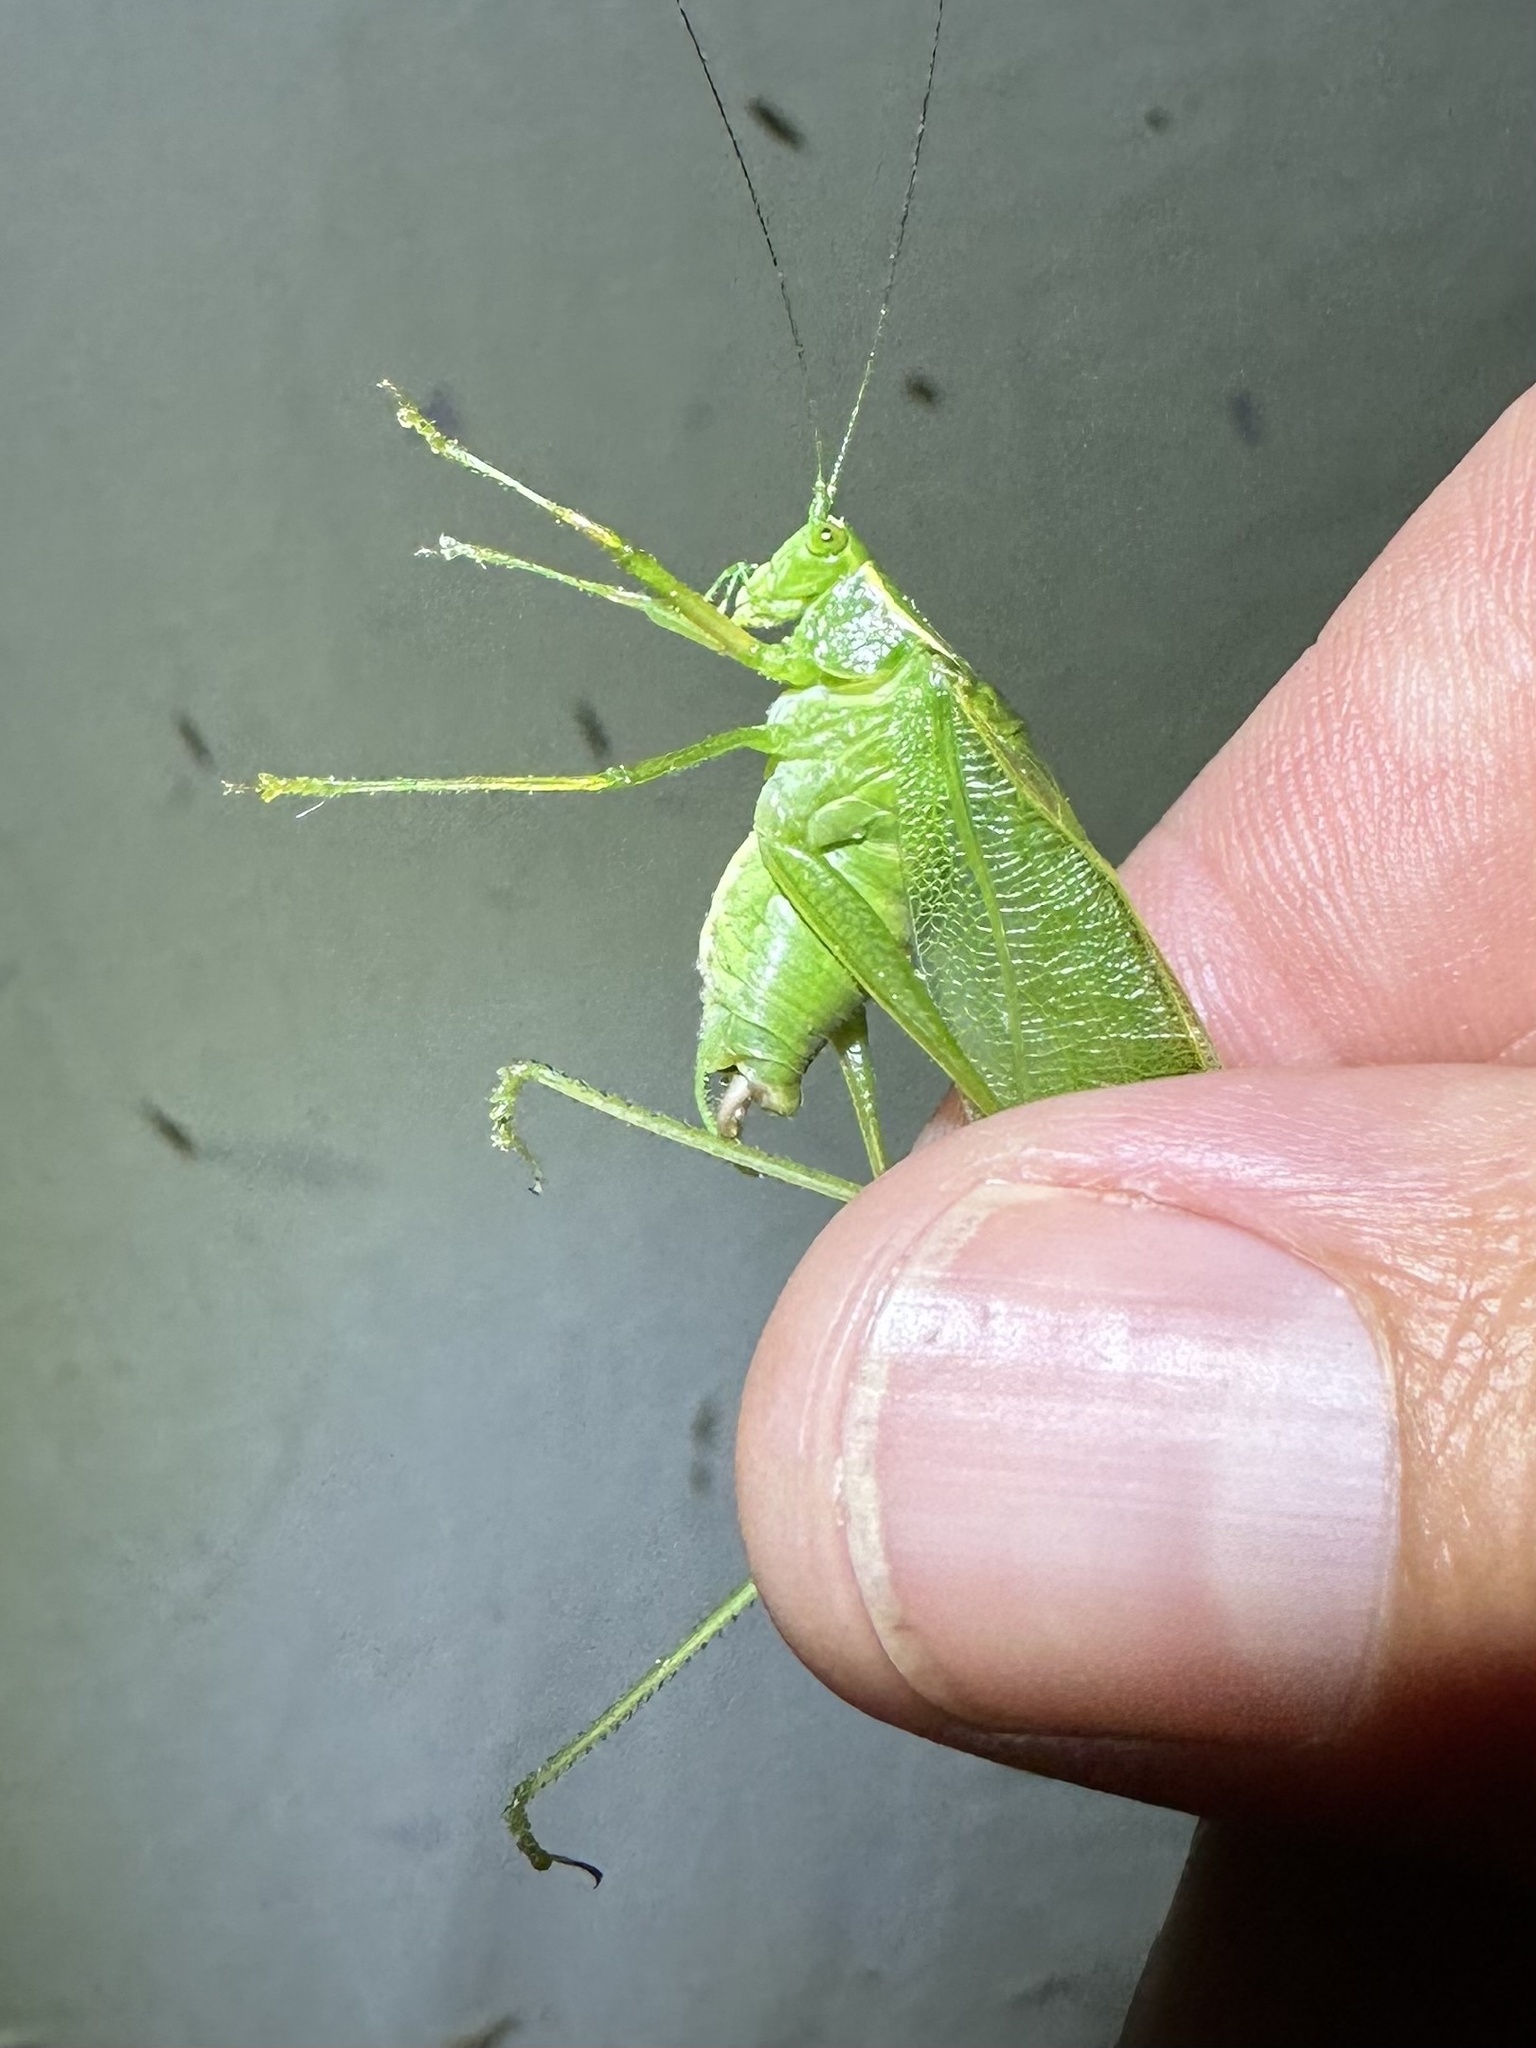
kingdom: Animalia
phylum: Arthropoda
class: Insecta
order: Orthoptera
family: Tettigoniidae
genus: Scudderia
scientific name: Scudderia septentrionalis
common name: Northern bush-katydid
